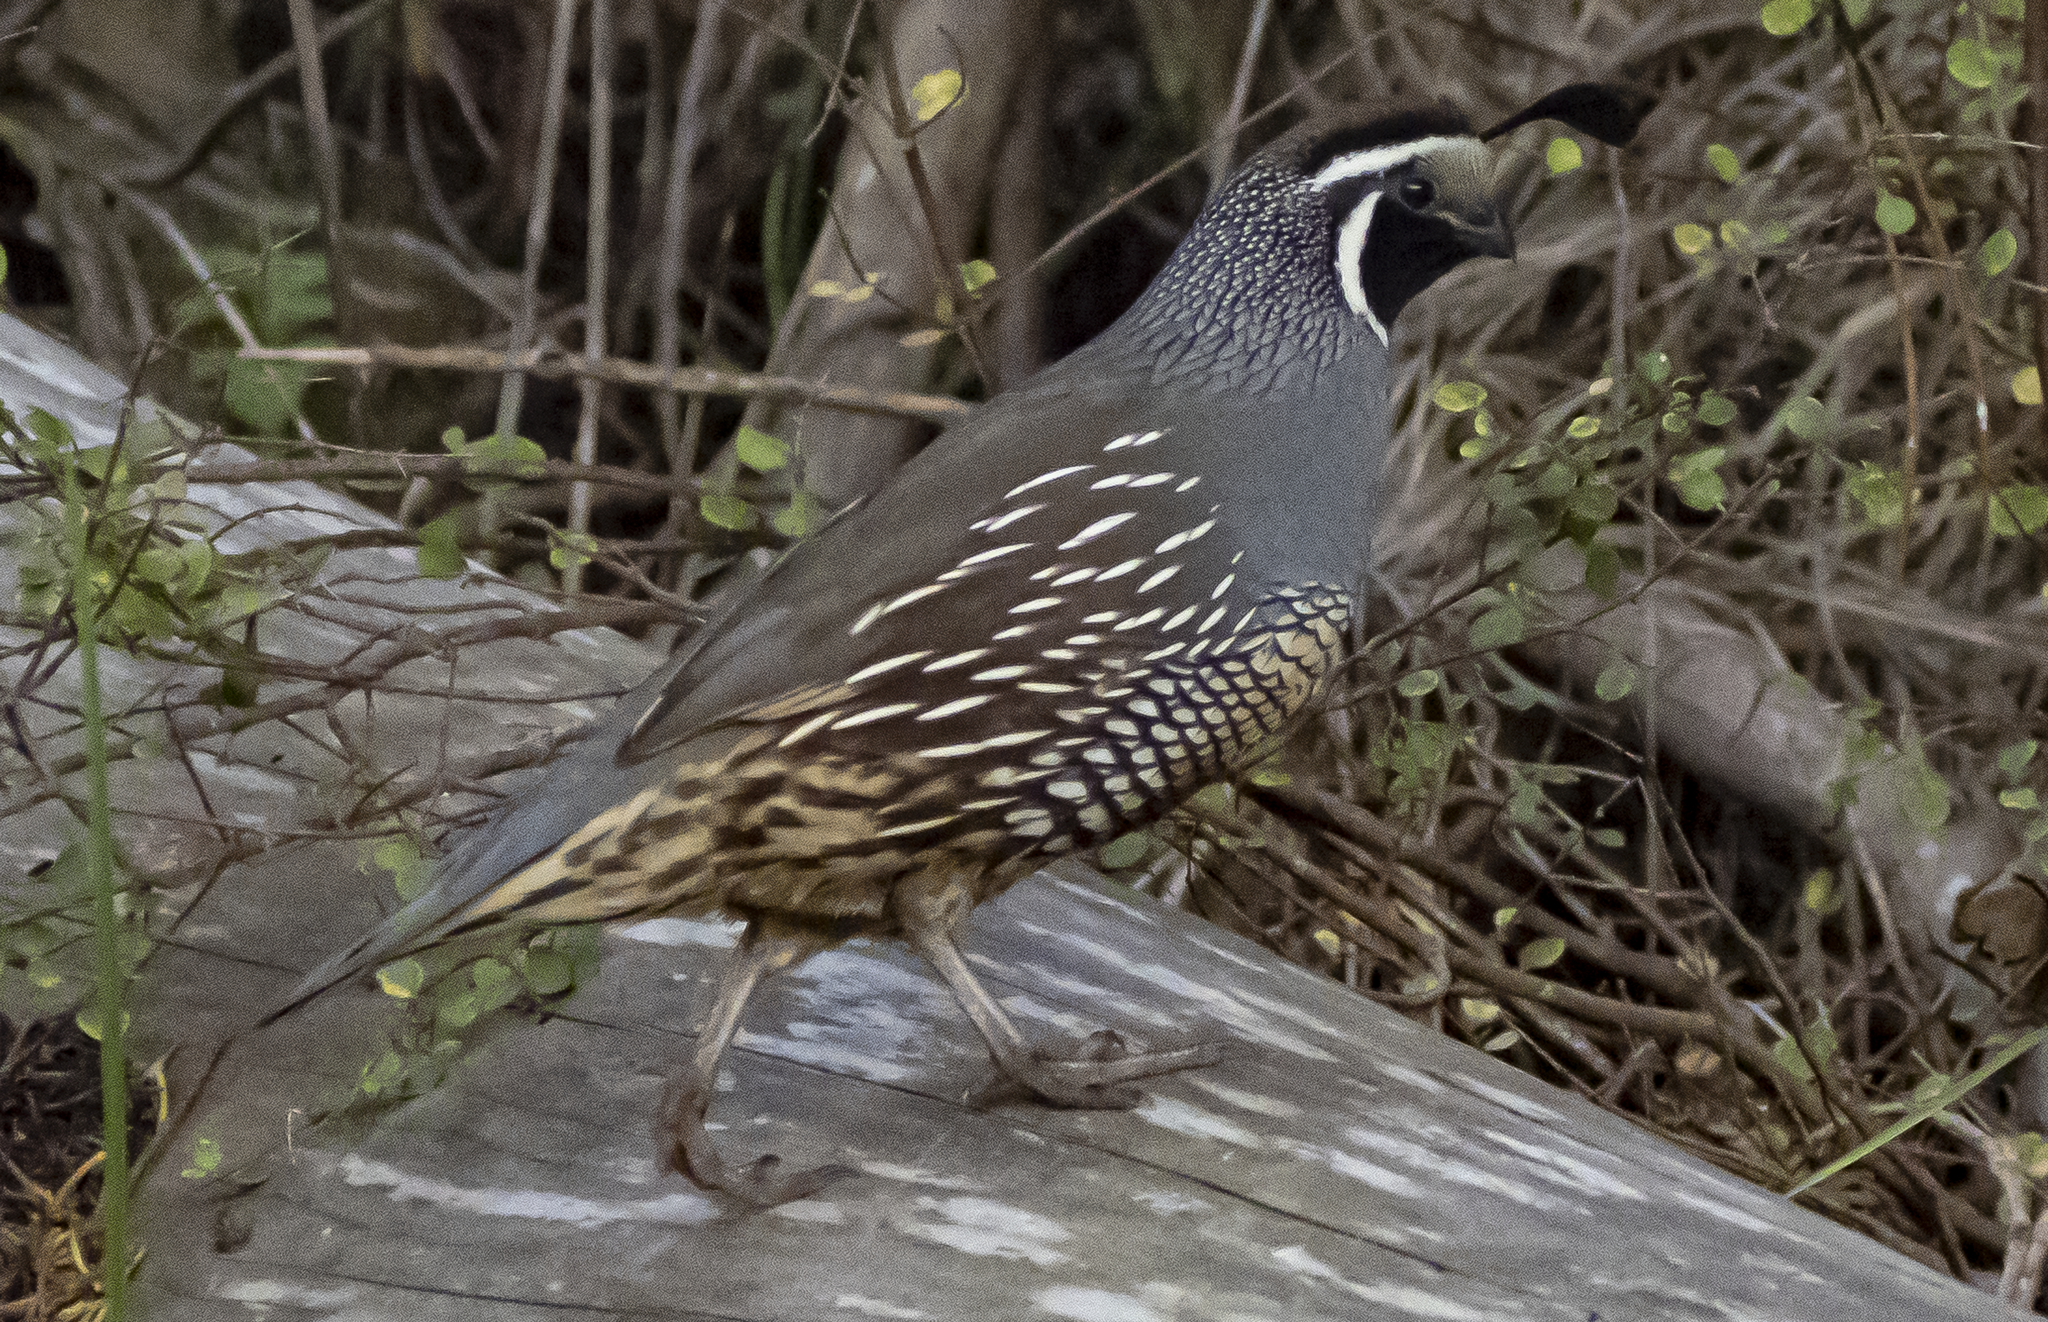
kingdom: Animalia
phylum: Chordata
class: Aves
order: Galliformes
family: Odontophoridae
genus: Callipepla
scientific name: Callipepla californica
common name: California quail
